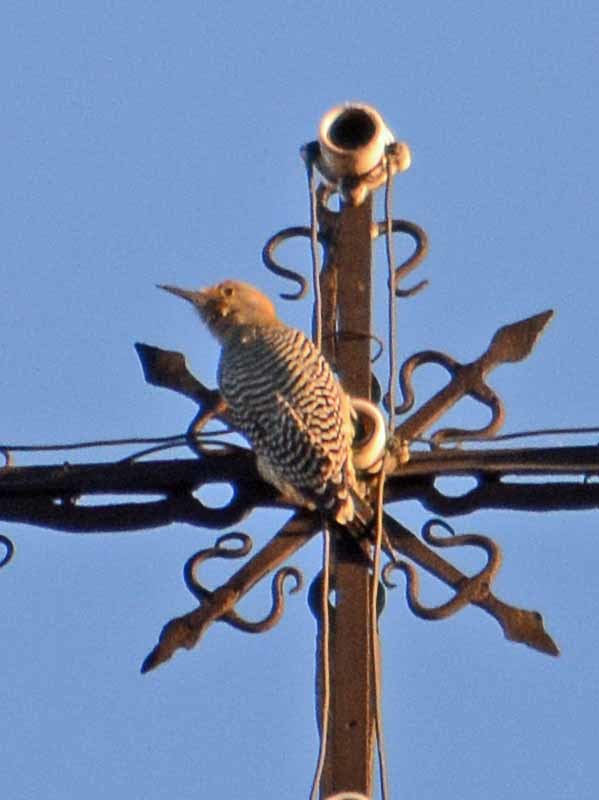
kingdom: Animalia
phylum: Chordata
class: Aves
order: Piciformes
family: Picidae
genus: Melanerpes
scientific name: Melanerpes aurifrons
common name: Golden-fronted woodpecker
